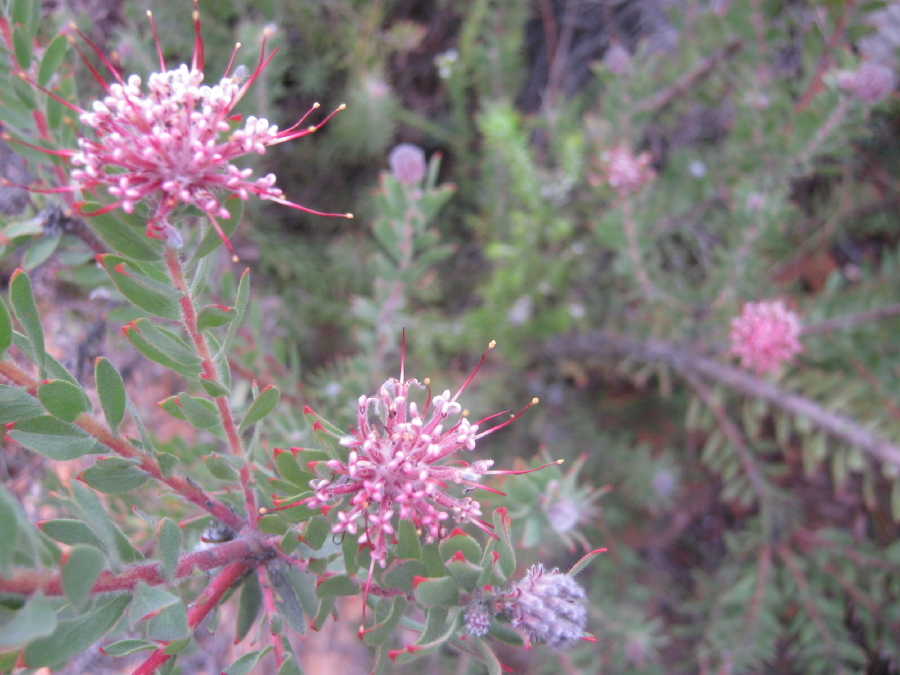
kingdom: Plantae
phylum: Tracheophyta
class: Magnoliopsida
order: Proteales
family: Proteaceae
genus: Leucospermum
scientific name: Leucospermum wittebergense
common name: Swartberg pincushion
